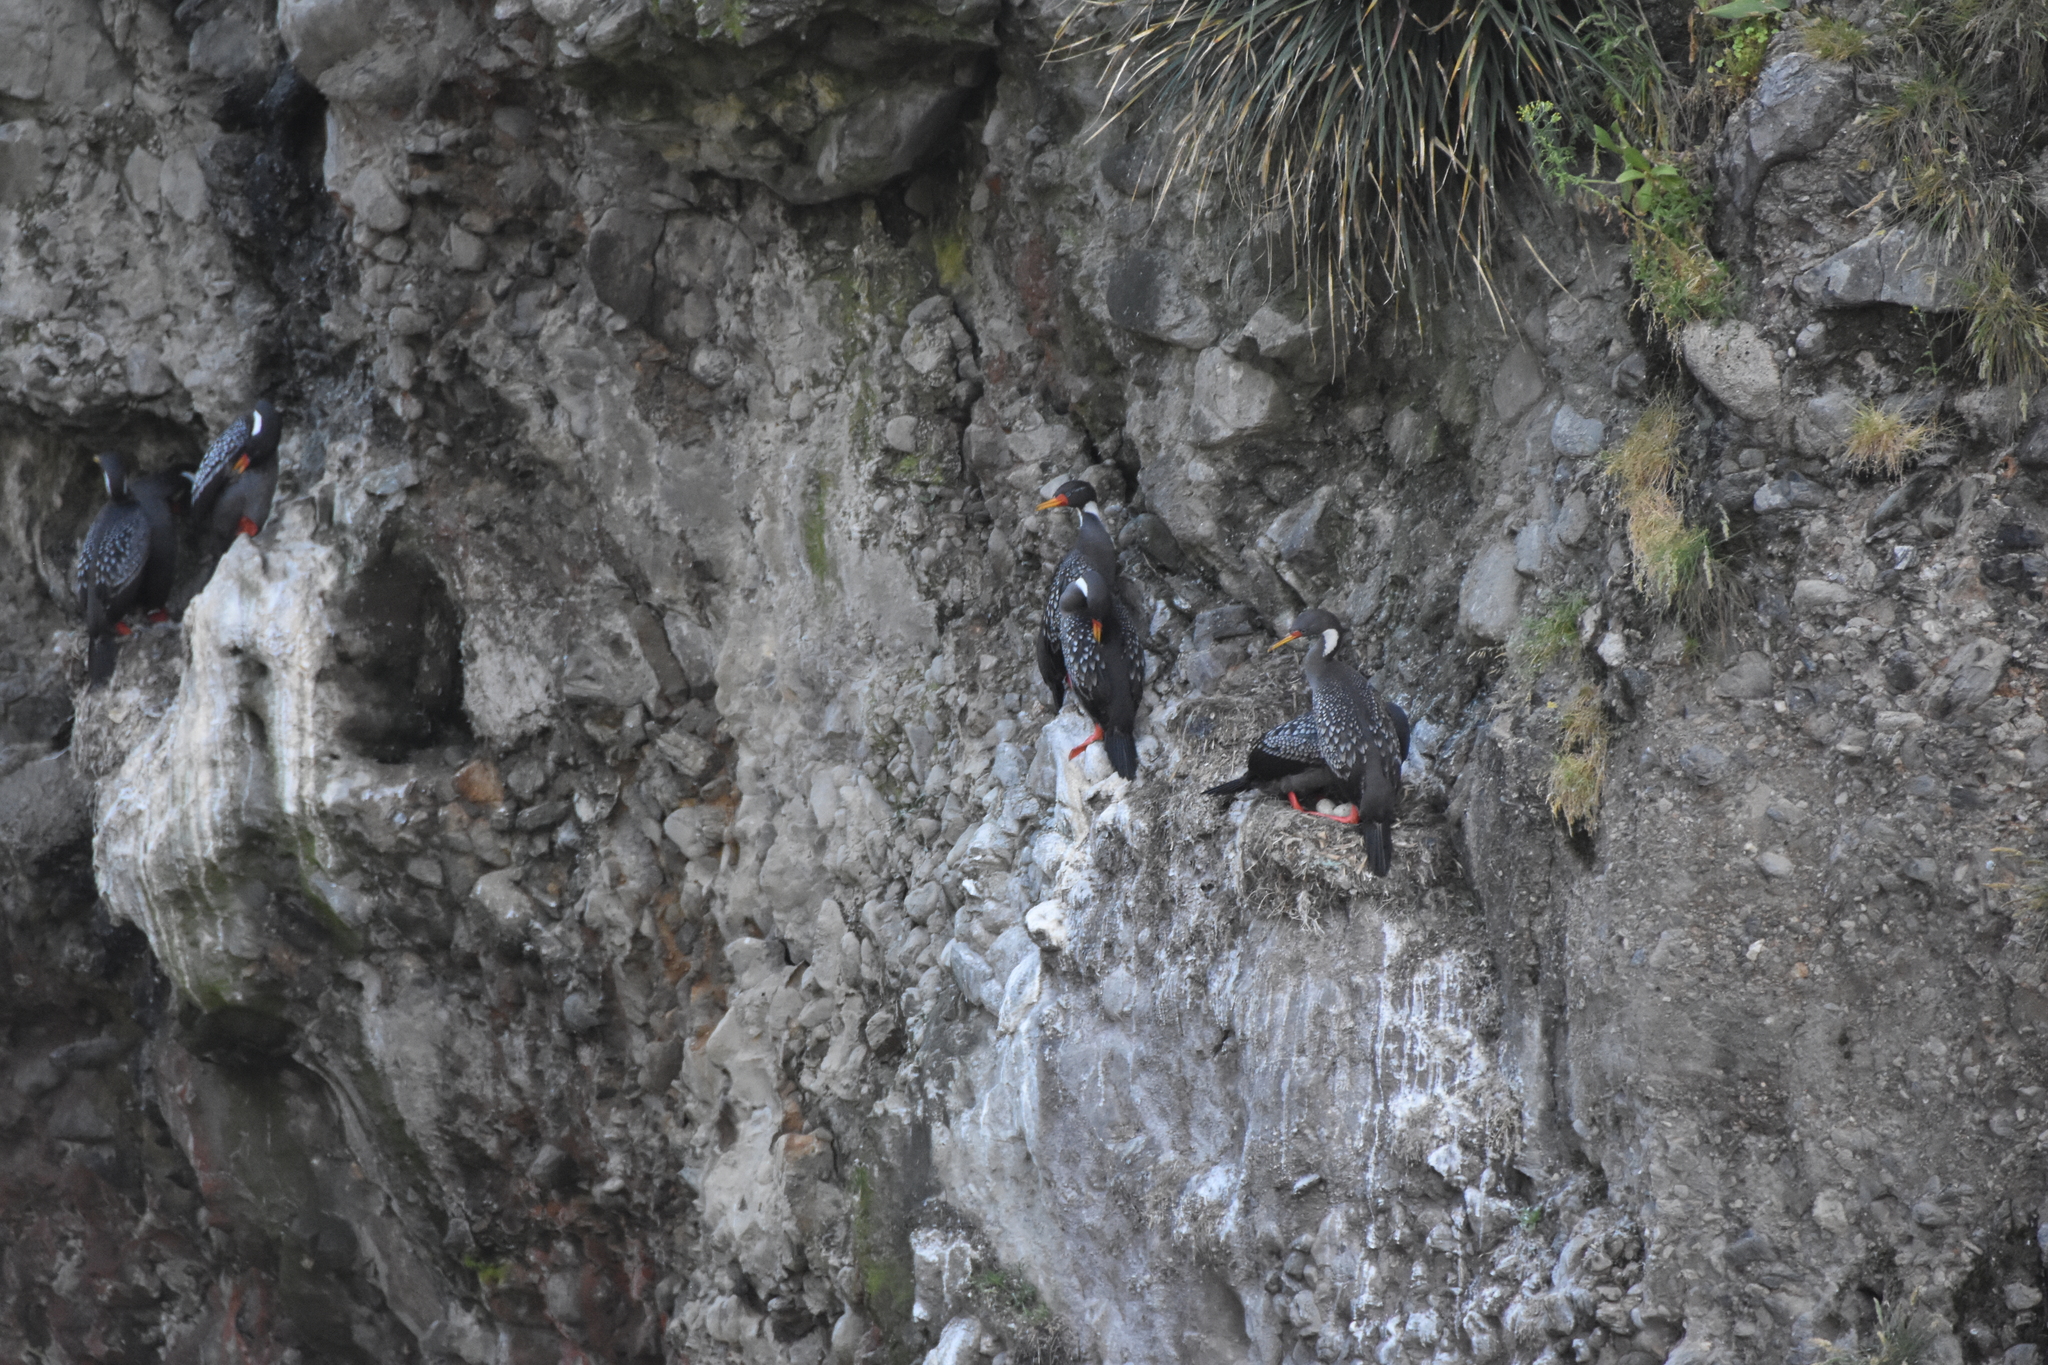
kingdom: Animalia
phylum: Chordata
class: Aves
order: Suliformes
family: Phalacrocoracidae
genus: Phalacrocorax
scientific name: Phalacrocorax gaimardi
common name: Red-legged cormorant
